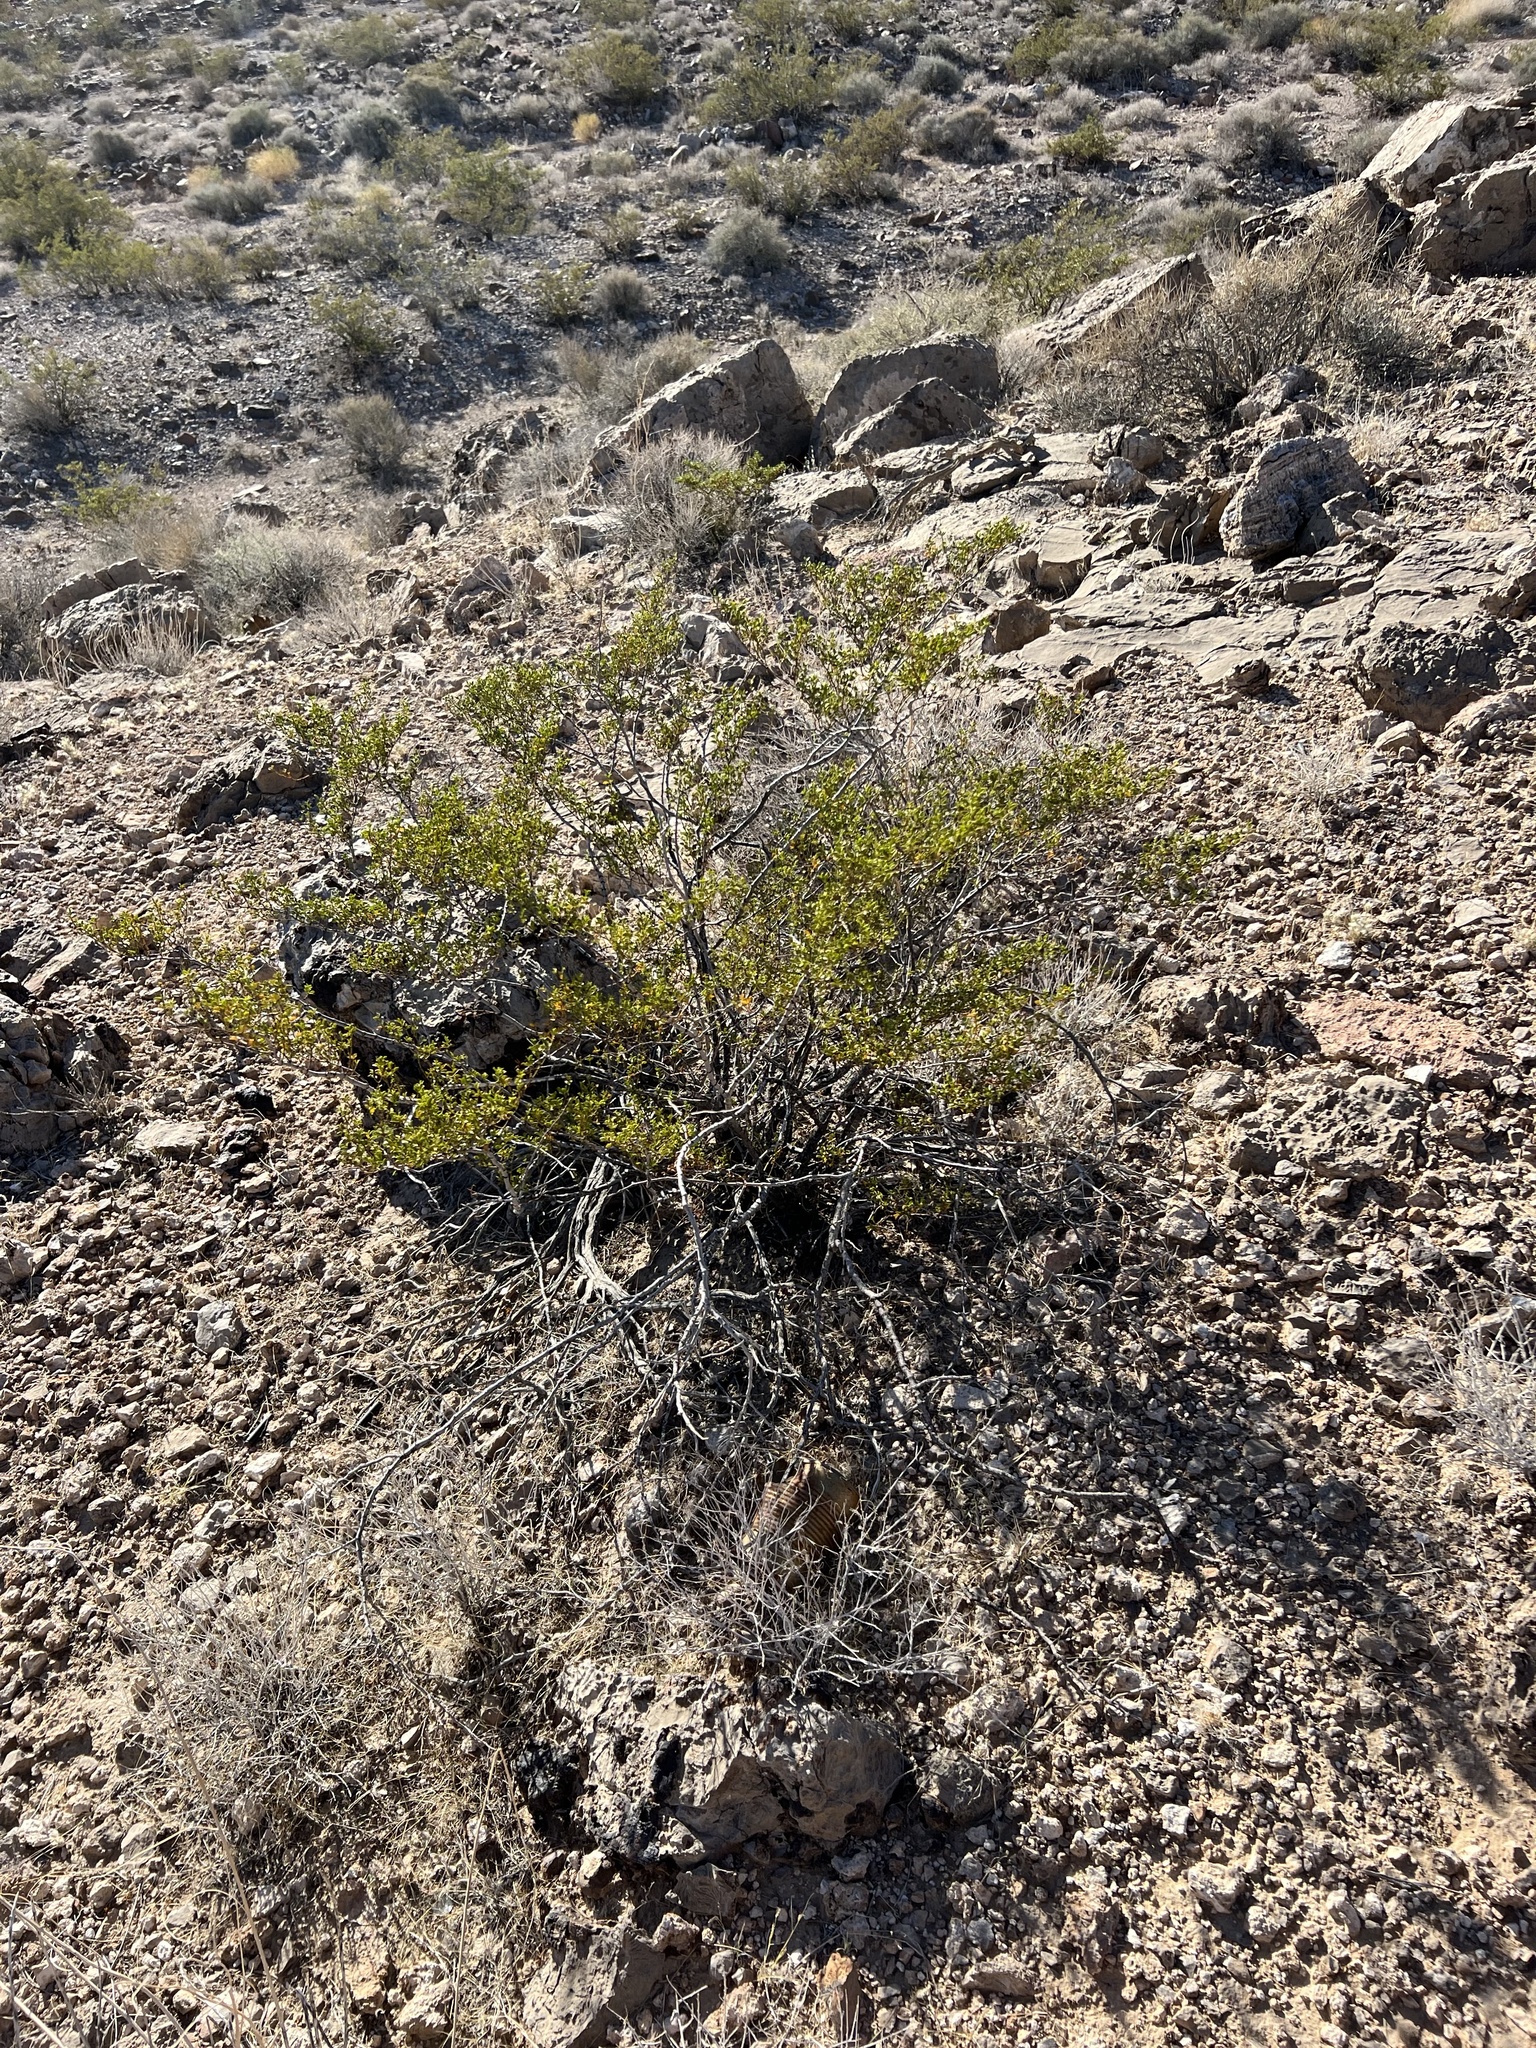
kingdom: Plantae
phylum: Tracheophyta
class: Magnoliopsida
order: Zygophyllales
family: Zygophyllaceae
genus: Larrea
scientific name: Larrea tridentata
